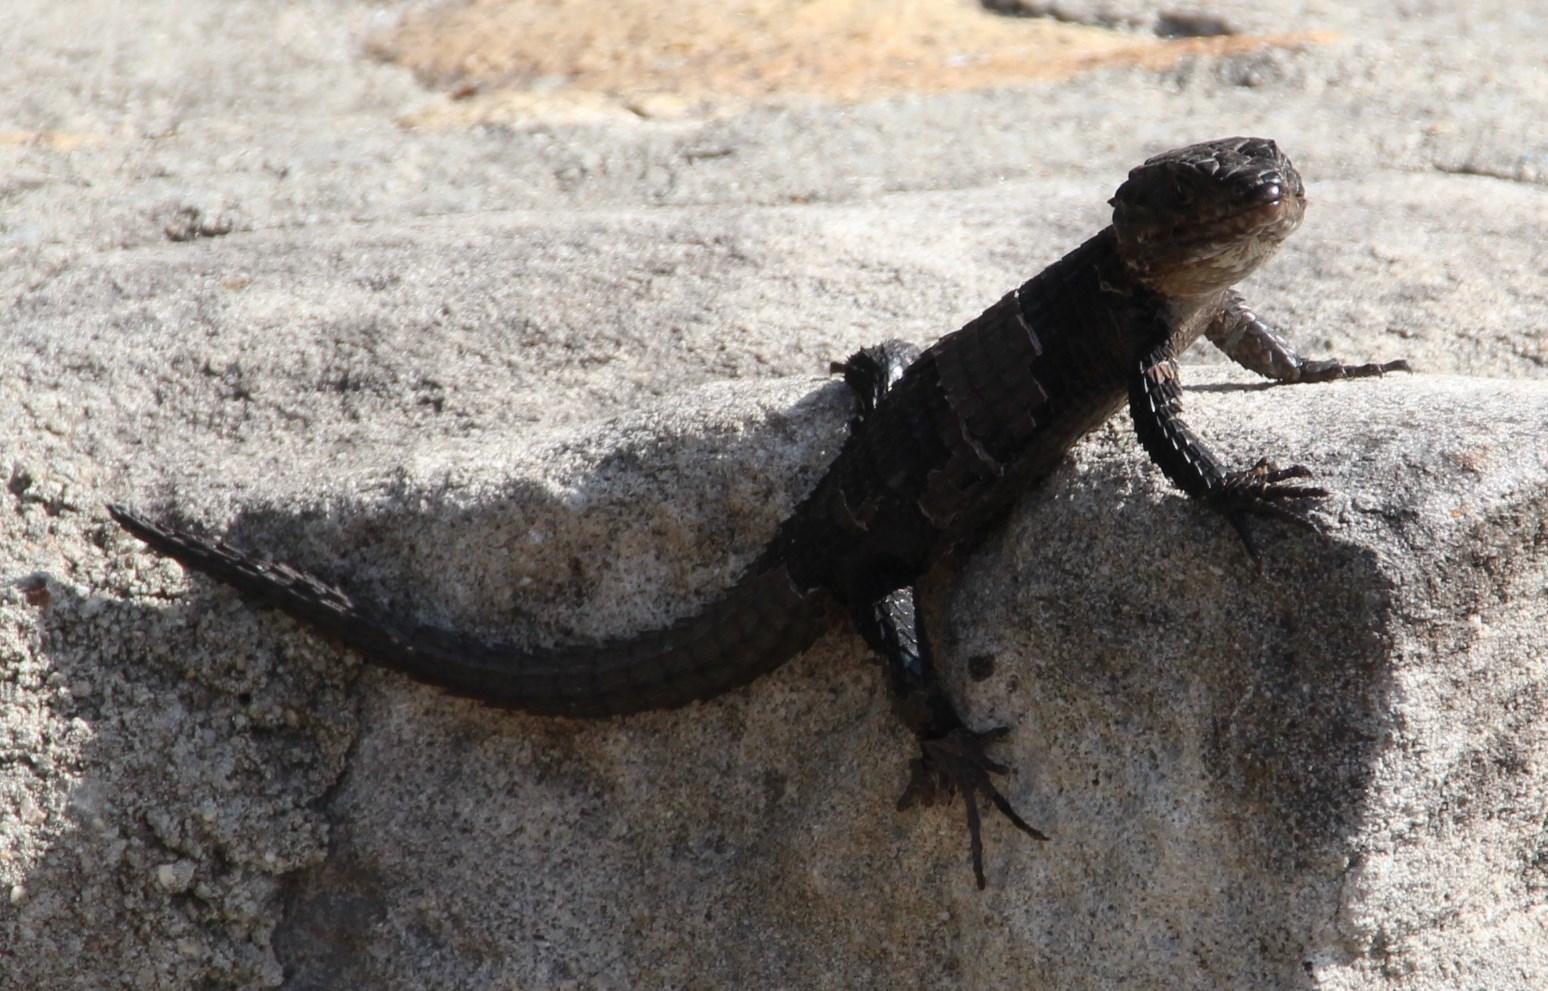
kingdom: Animalia
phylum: Chordata
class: Squamata
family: Cordylidae
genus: Cordylus
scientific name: Cordylus niger
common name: Black girdled lizard
